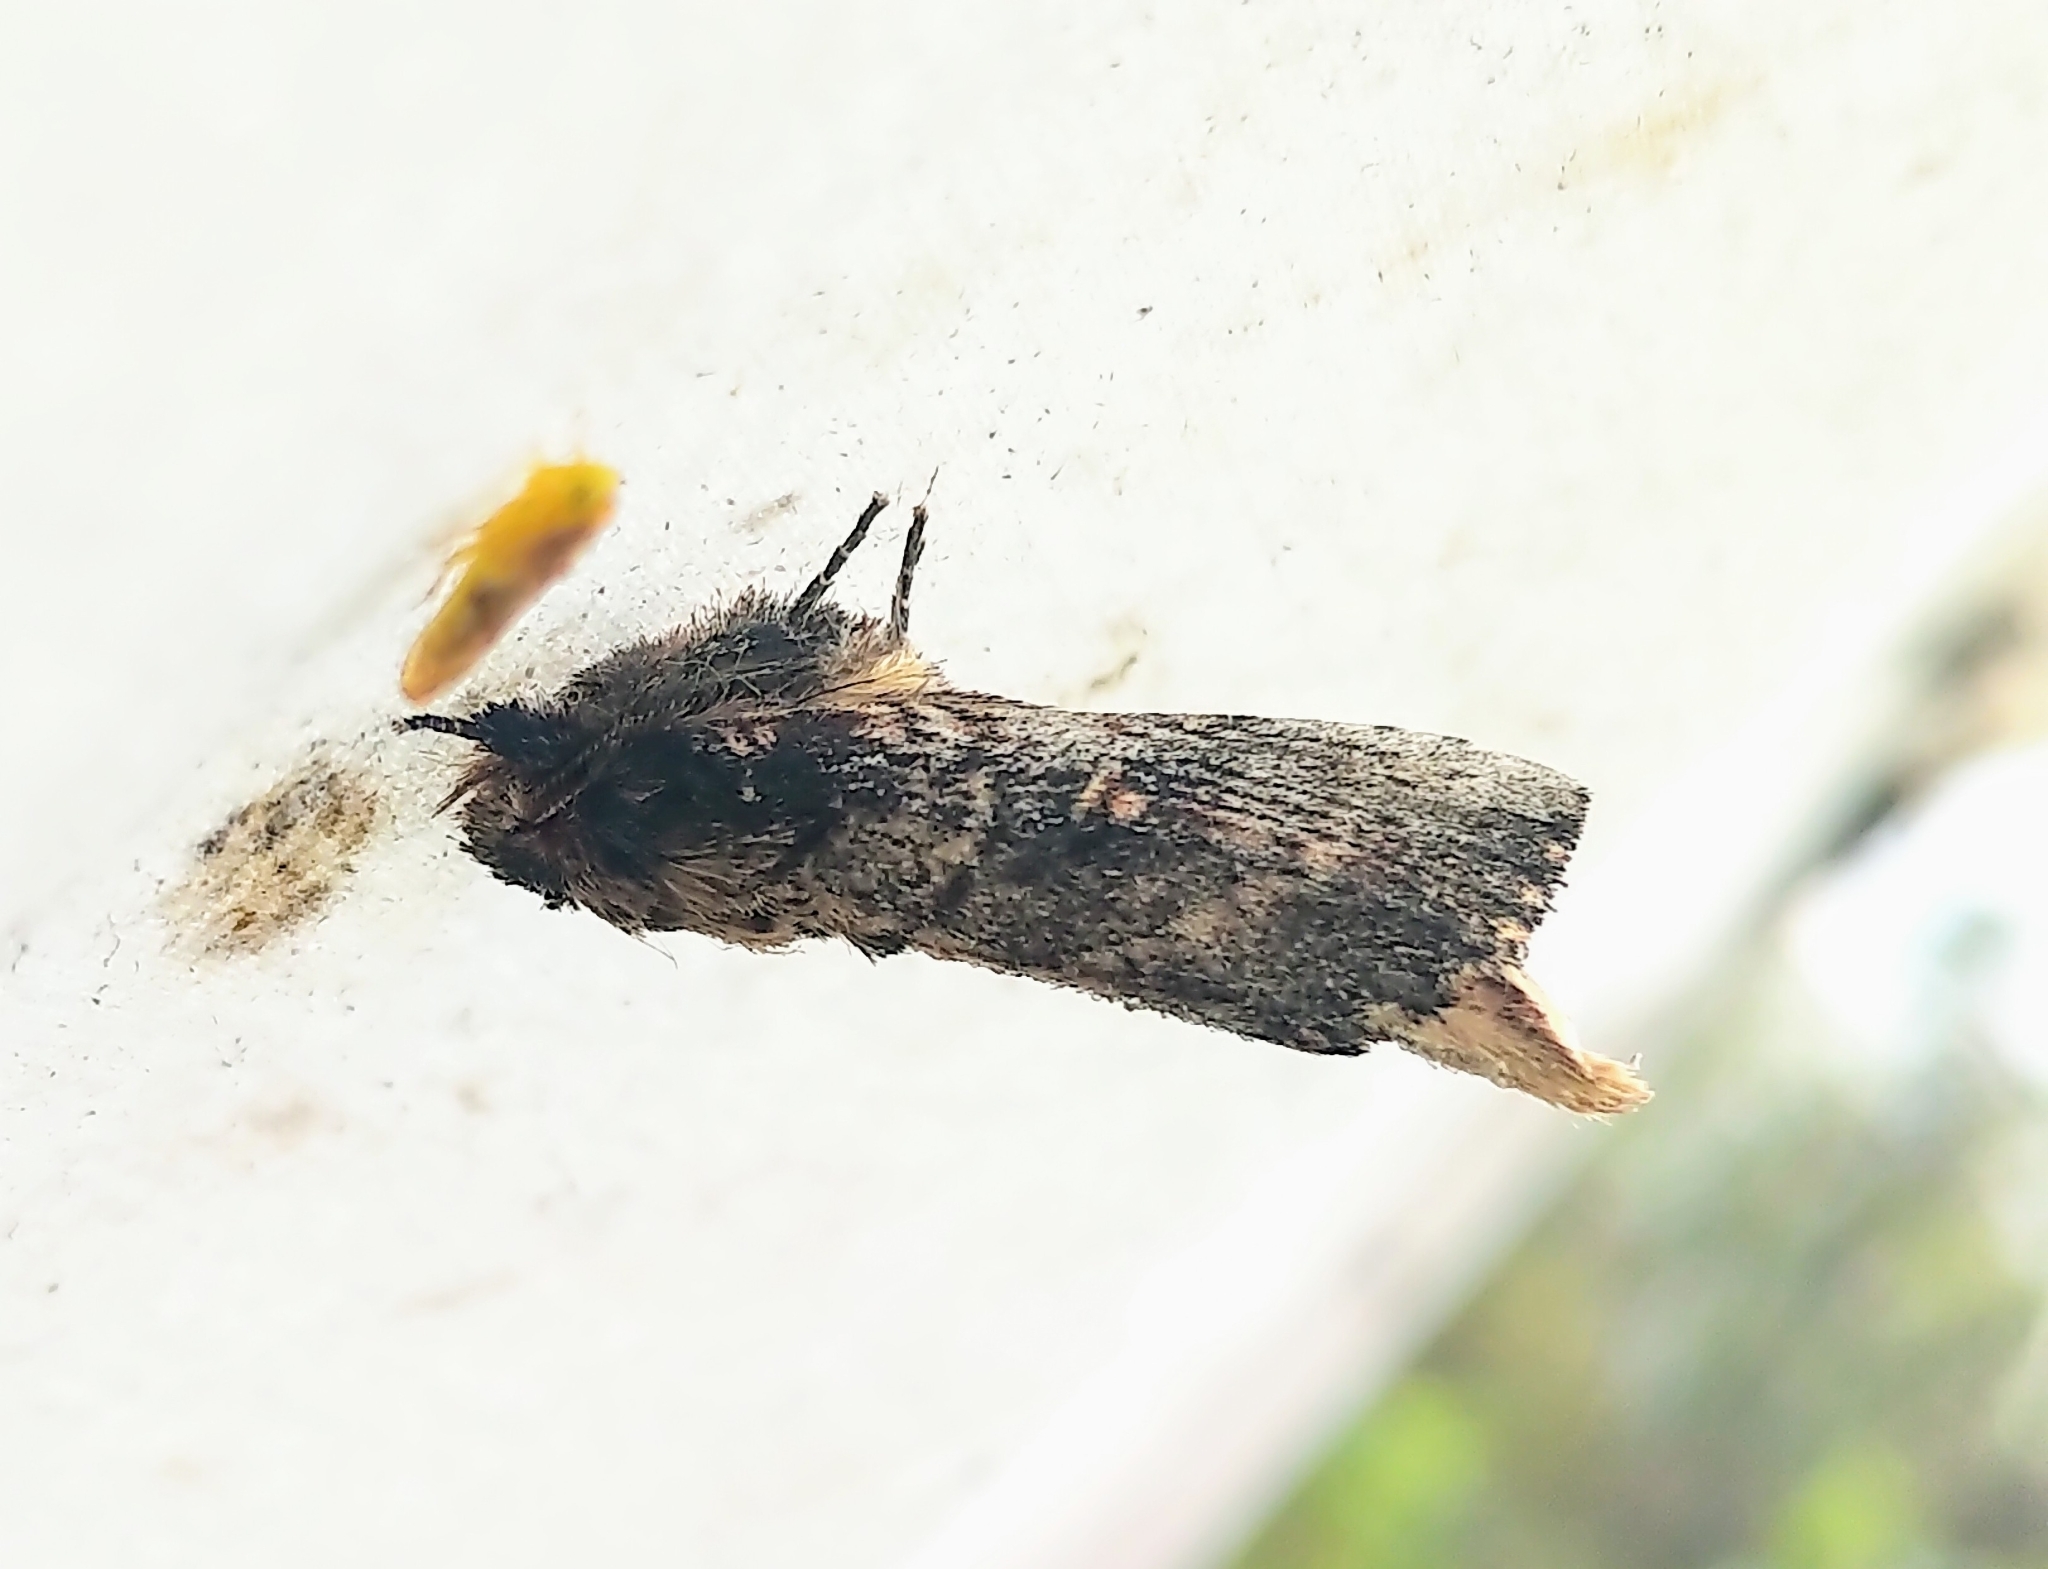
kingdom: Animalia
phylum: Arthropoda
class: Insecta
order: Lepidoptera
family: Notodontidae
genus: Schizura
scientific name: Schizura ipomaeae
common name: Morning-glory prominent
